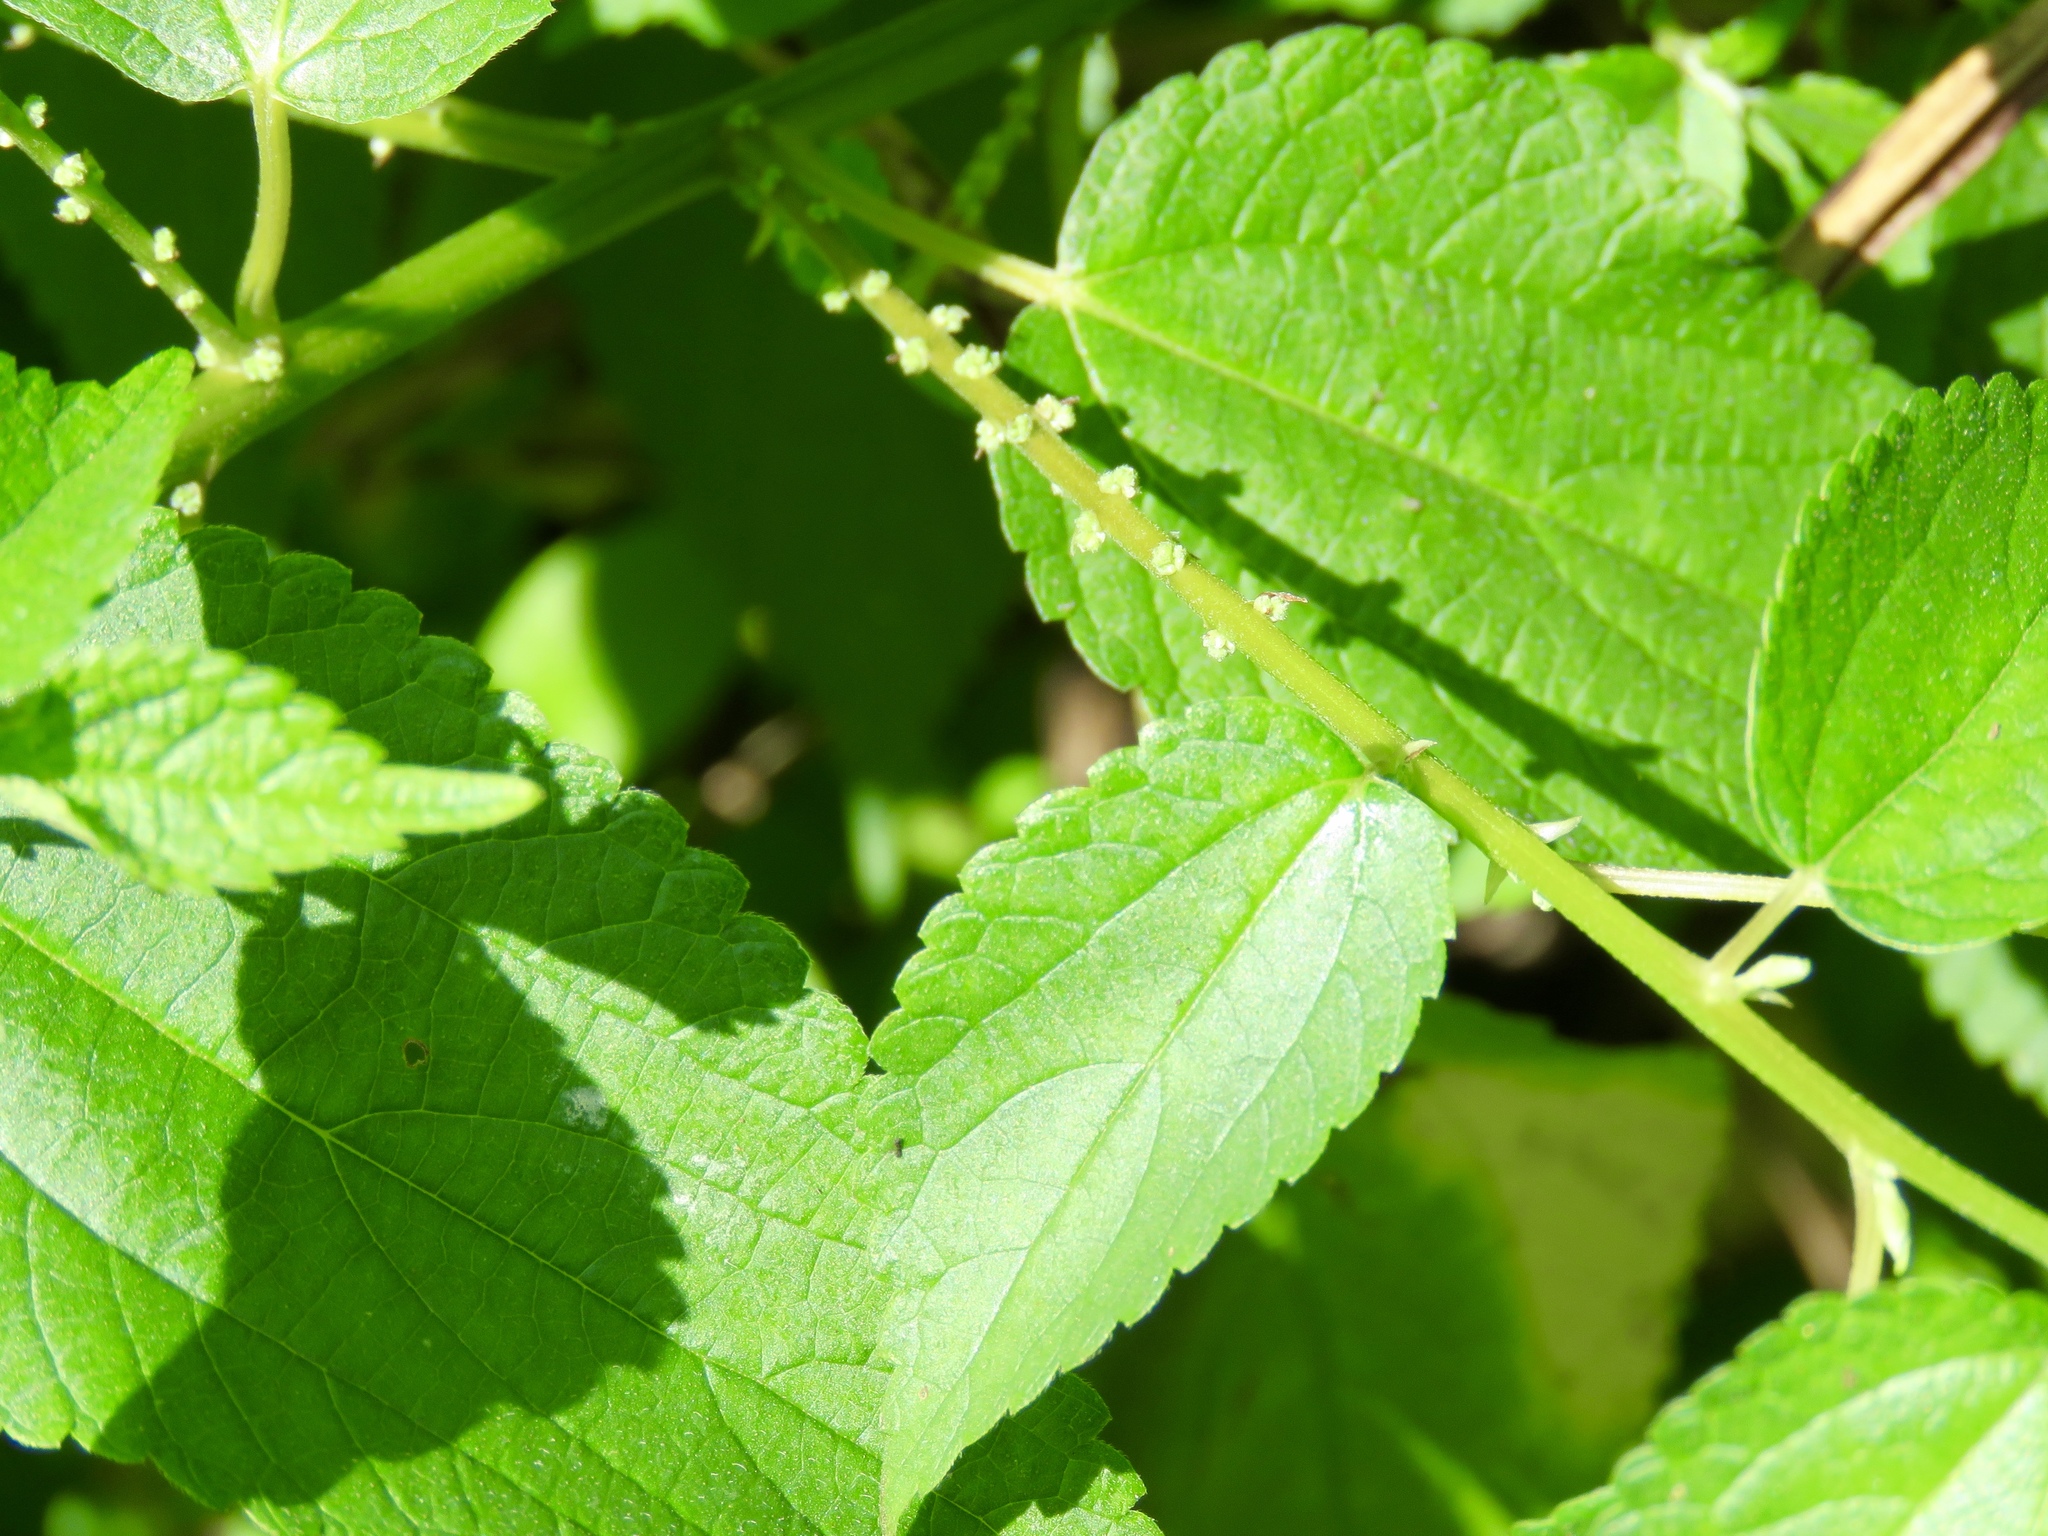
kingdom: Plantae
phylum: Tracheophyta
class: Magnoliopsida
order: Rosales
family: Urticaceae
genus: Boehmeria
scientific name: Boehmeria cylindrica
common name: Bog-hemp
